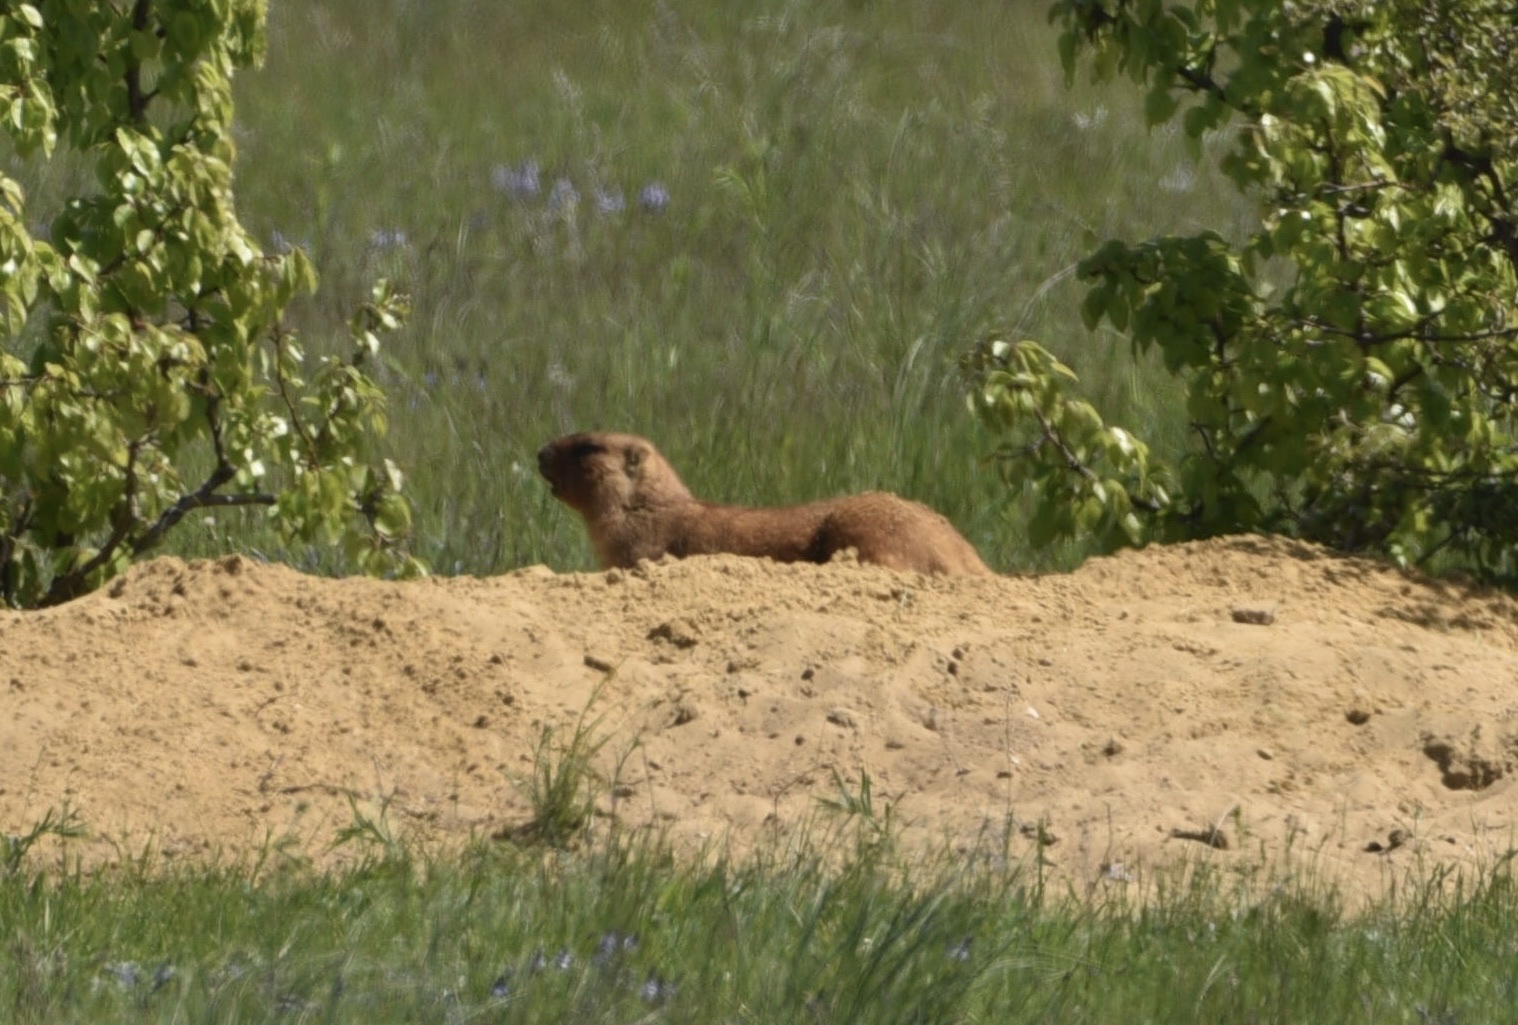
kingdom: Animalia
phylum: Chordata
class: Mammalia
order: Rodentia
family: Sciuridae
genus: Marmota
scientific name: Marmota bobak
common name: Bobak marmot
